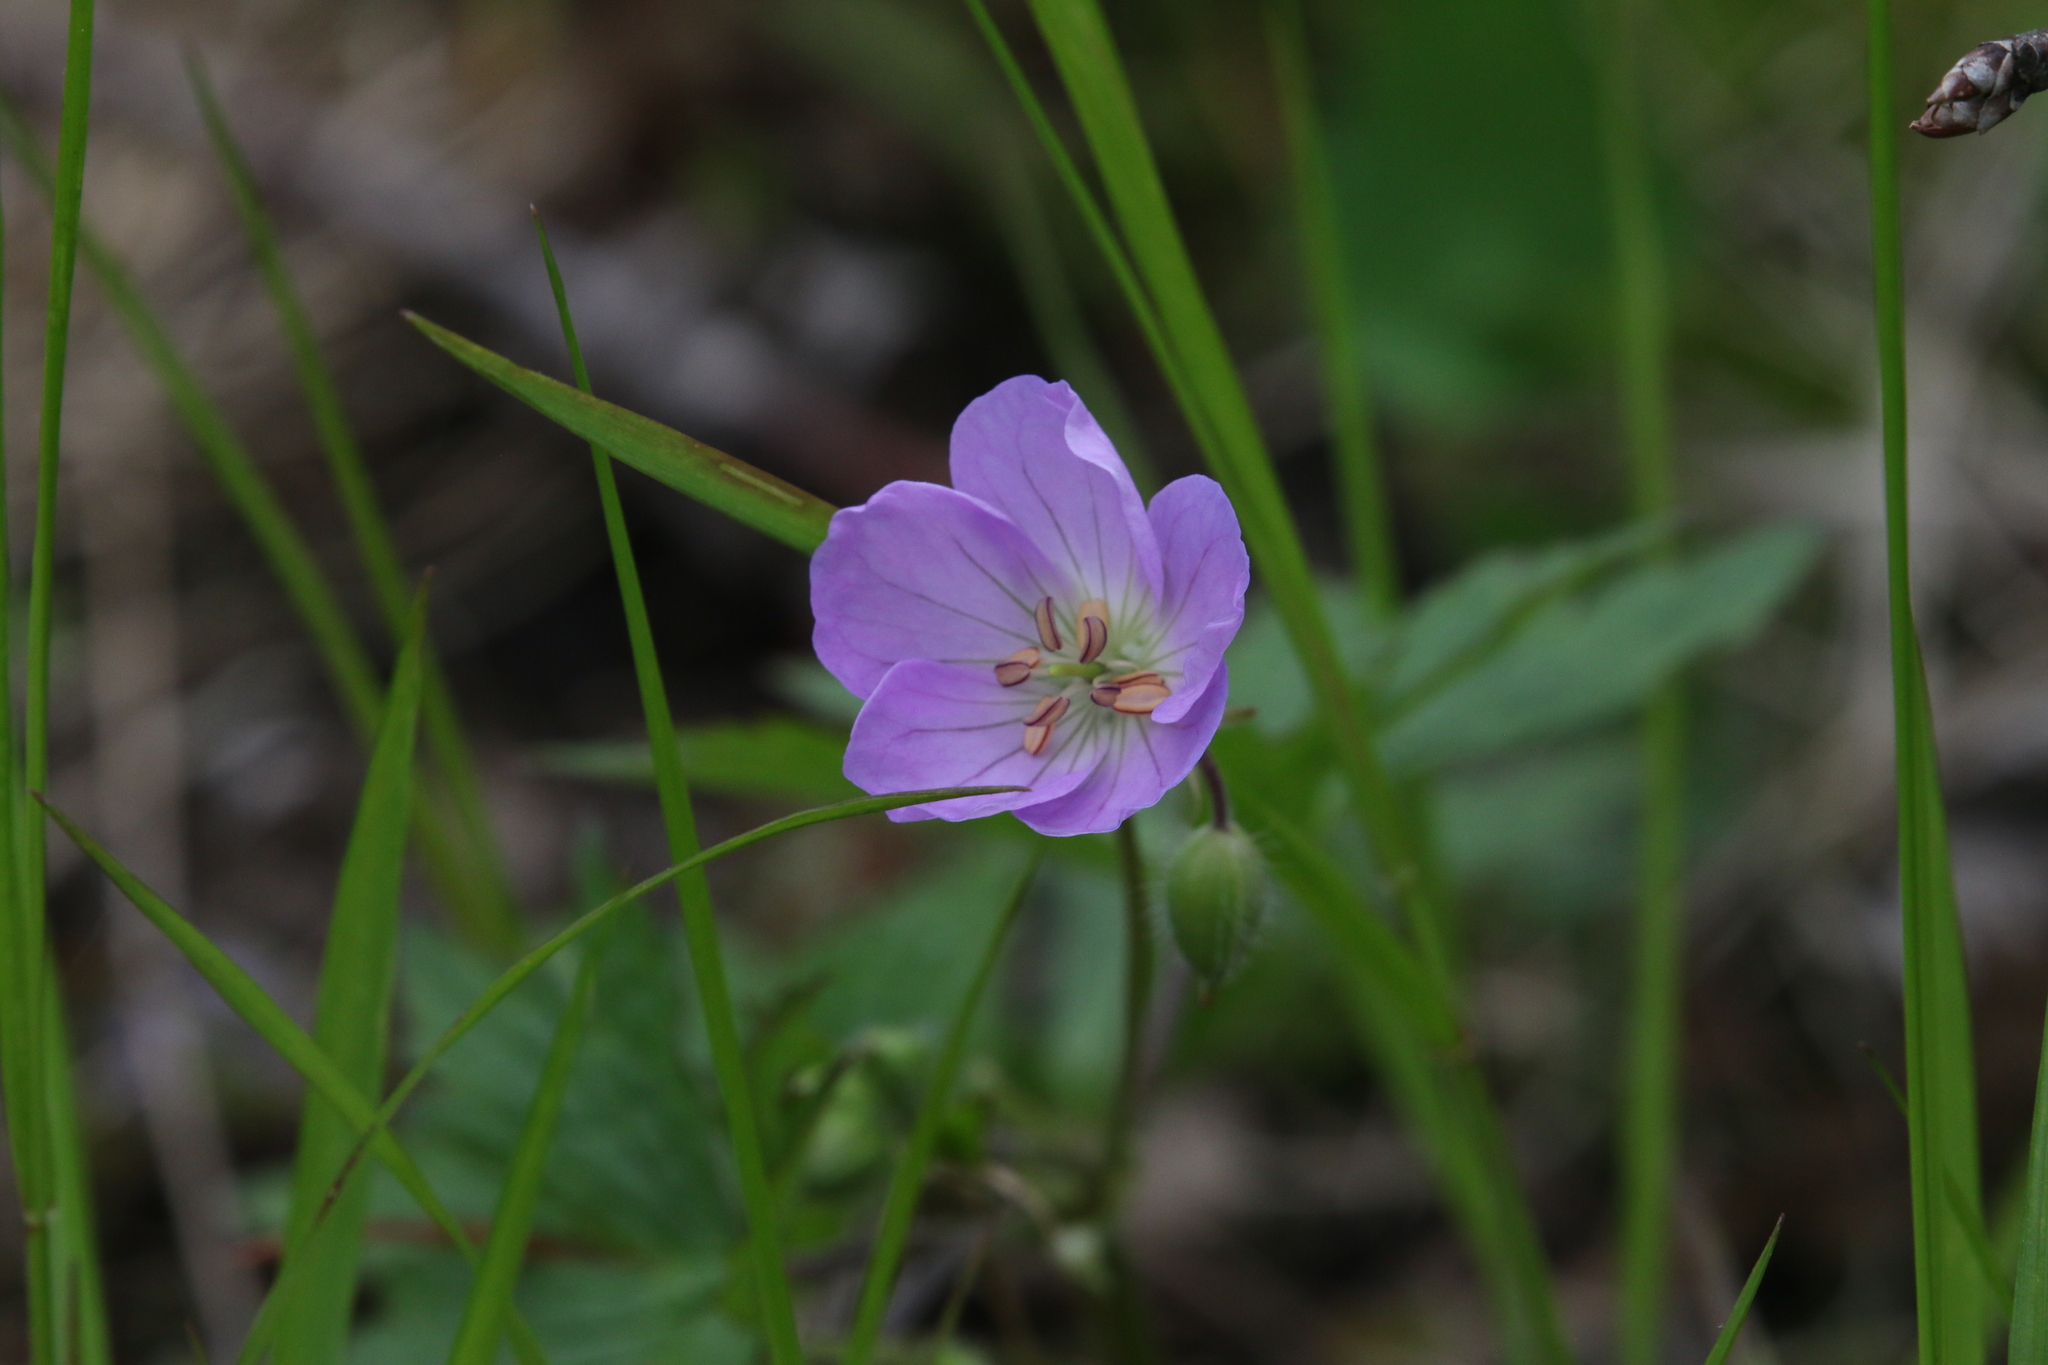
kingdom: Plantae
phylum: Tracheophyta
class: Magnoliopsida
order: Geraniales
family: Geraniaceae
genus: Geranium
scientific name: Geranium maculatum
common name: Spotted geranium
